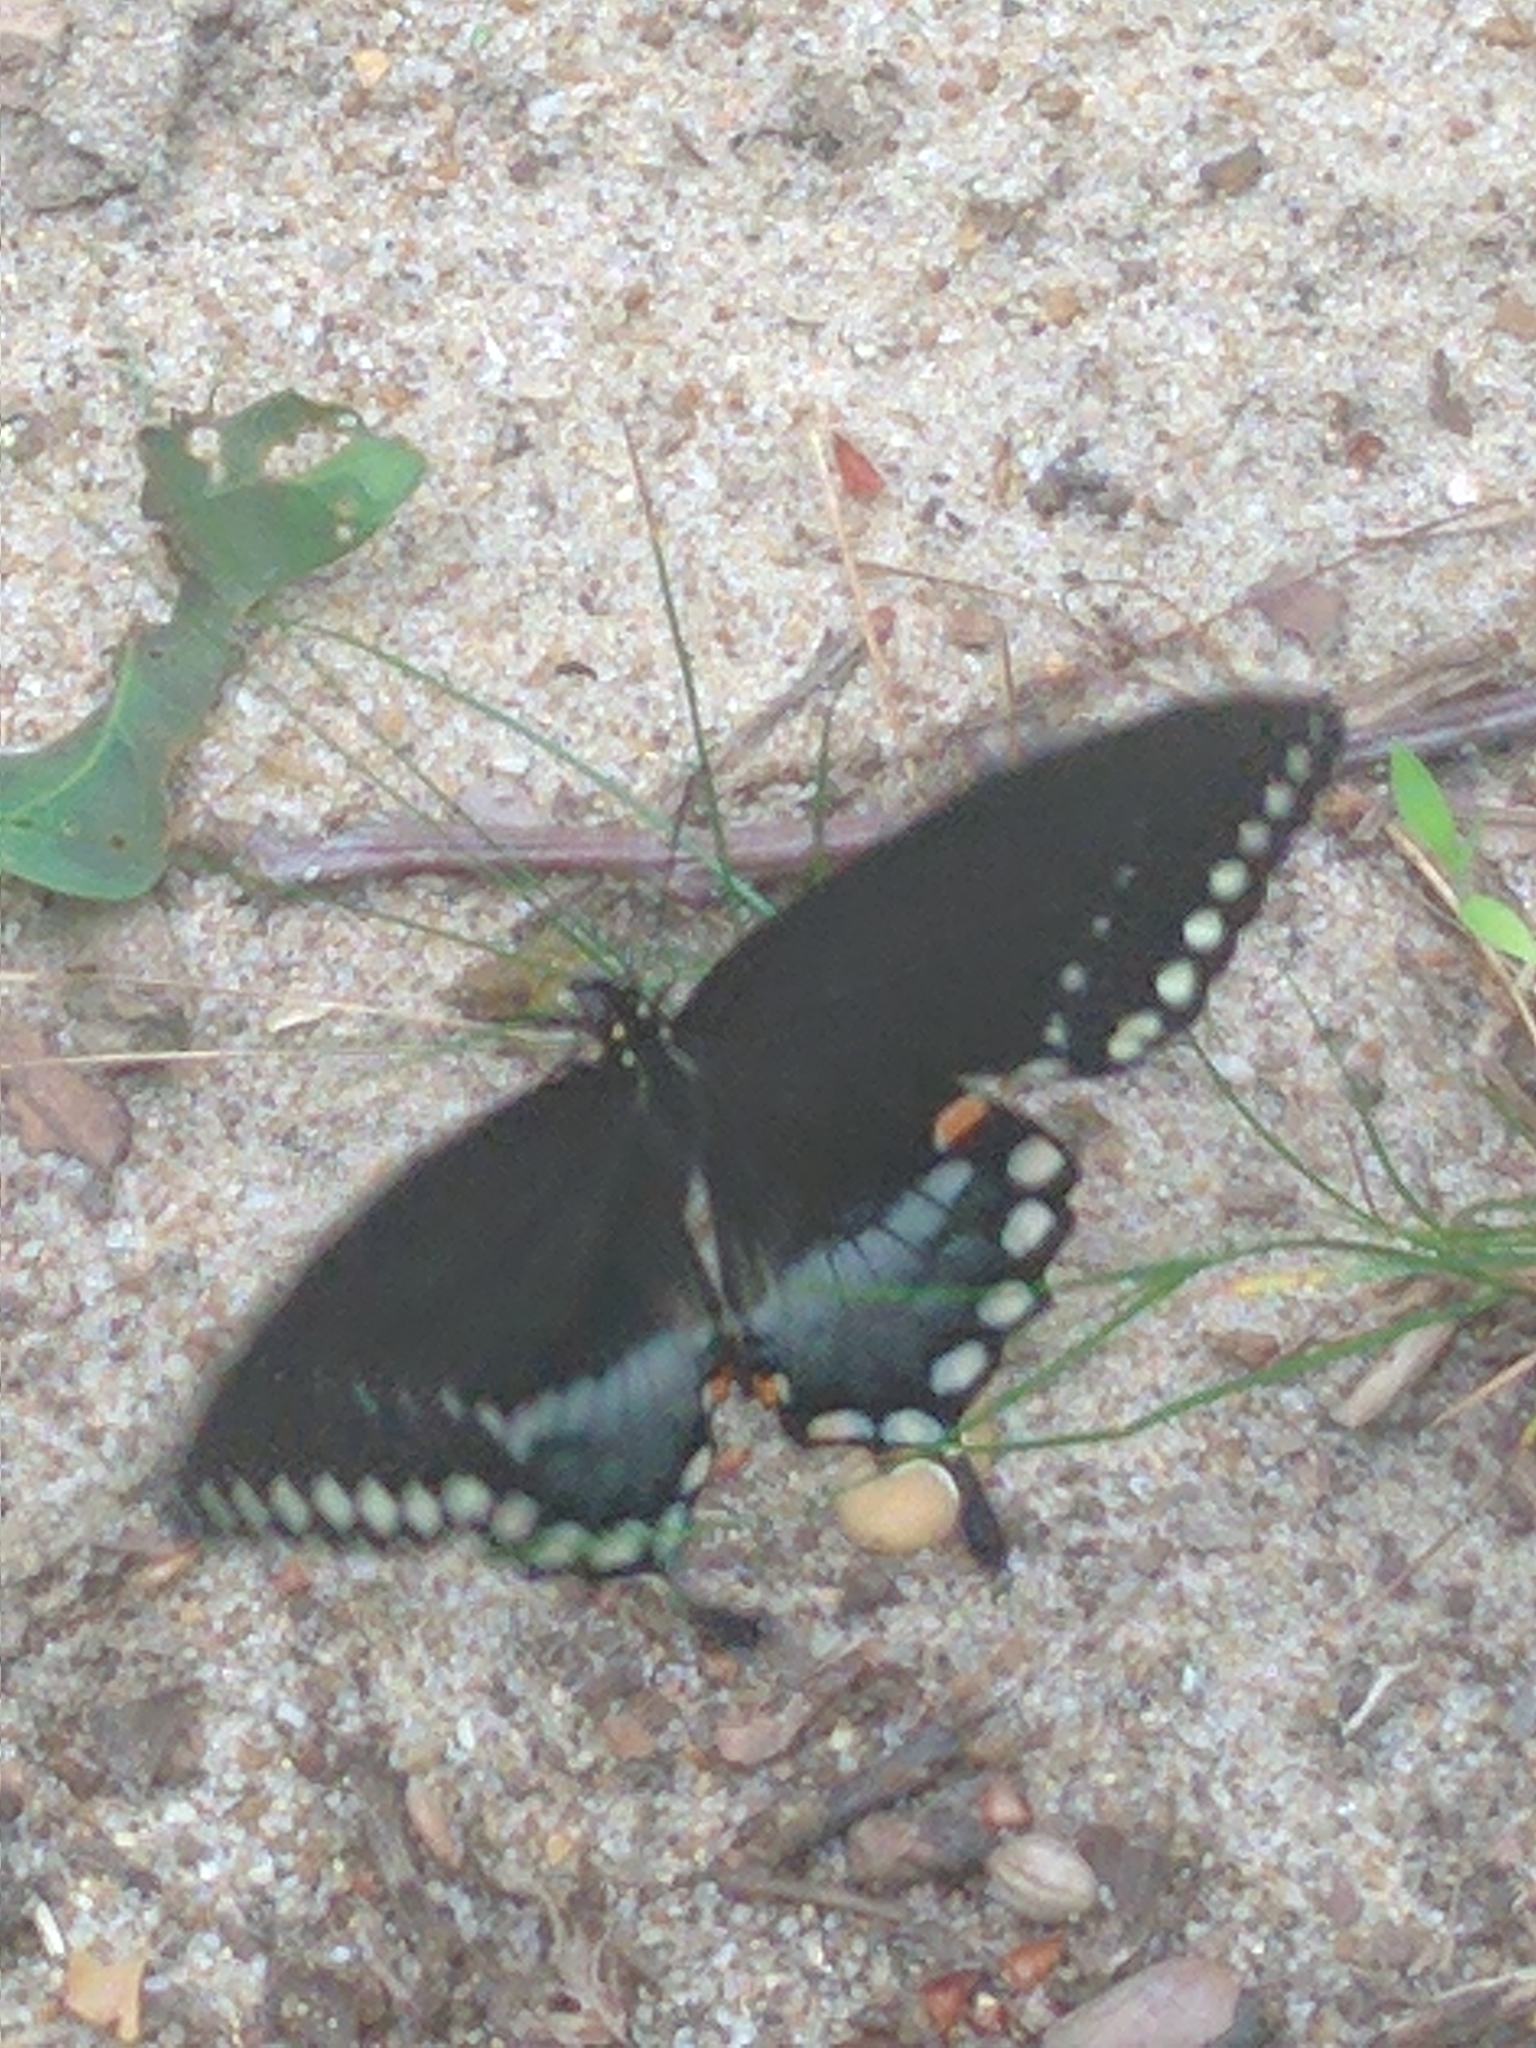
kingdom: Animalia
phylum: Arthropoda
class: Insecta
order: Lepidoptera
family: Papilionidae
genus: Papilio
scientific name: Papilio troilus
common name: Spicebush swallowtail
